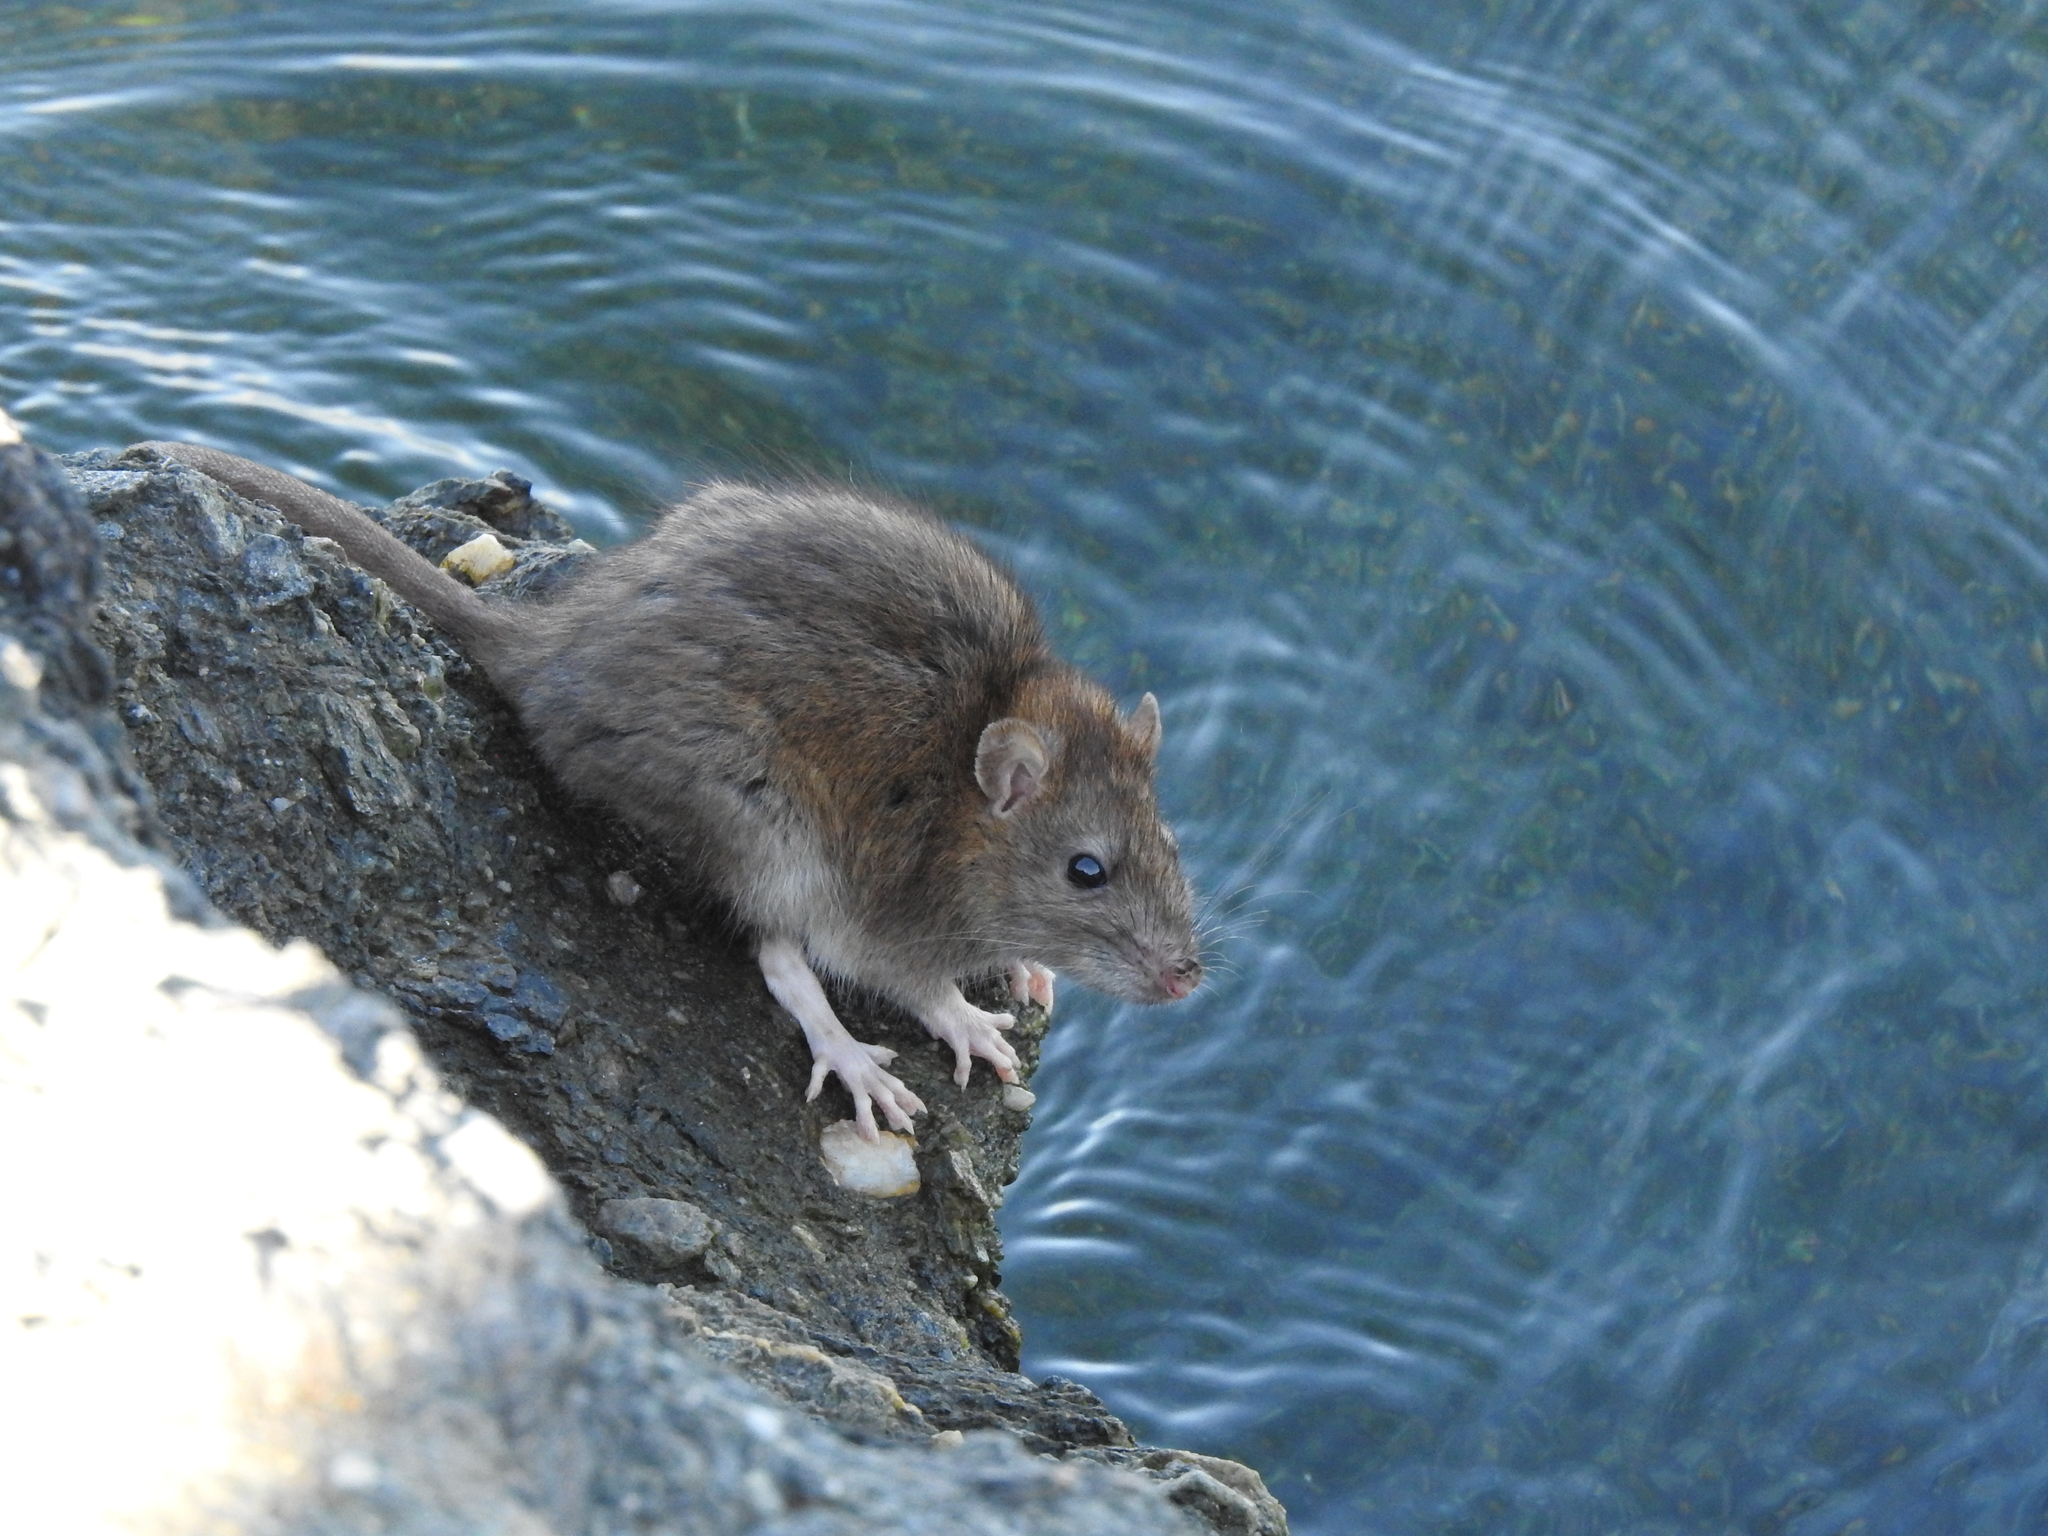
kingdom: Animalia
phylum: Chordata
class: Mammalia
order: Rodentia
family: Muridae
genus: Rattus
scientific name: Rattus norvegicus
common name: Brown rat
